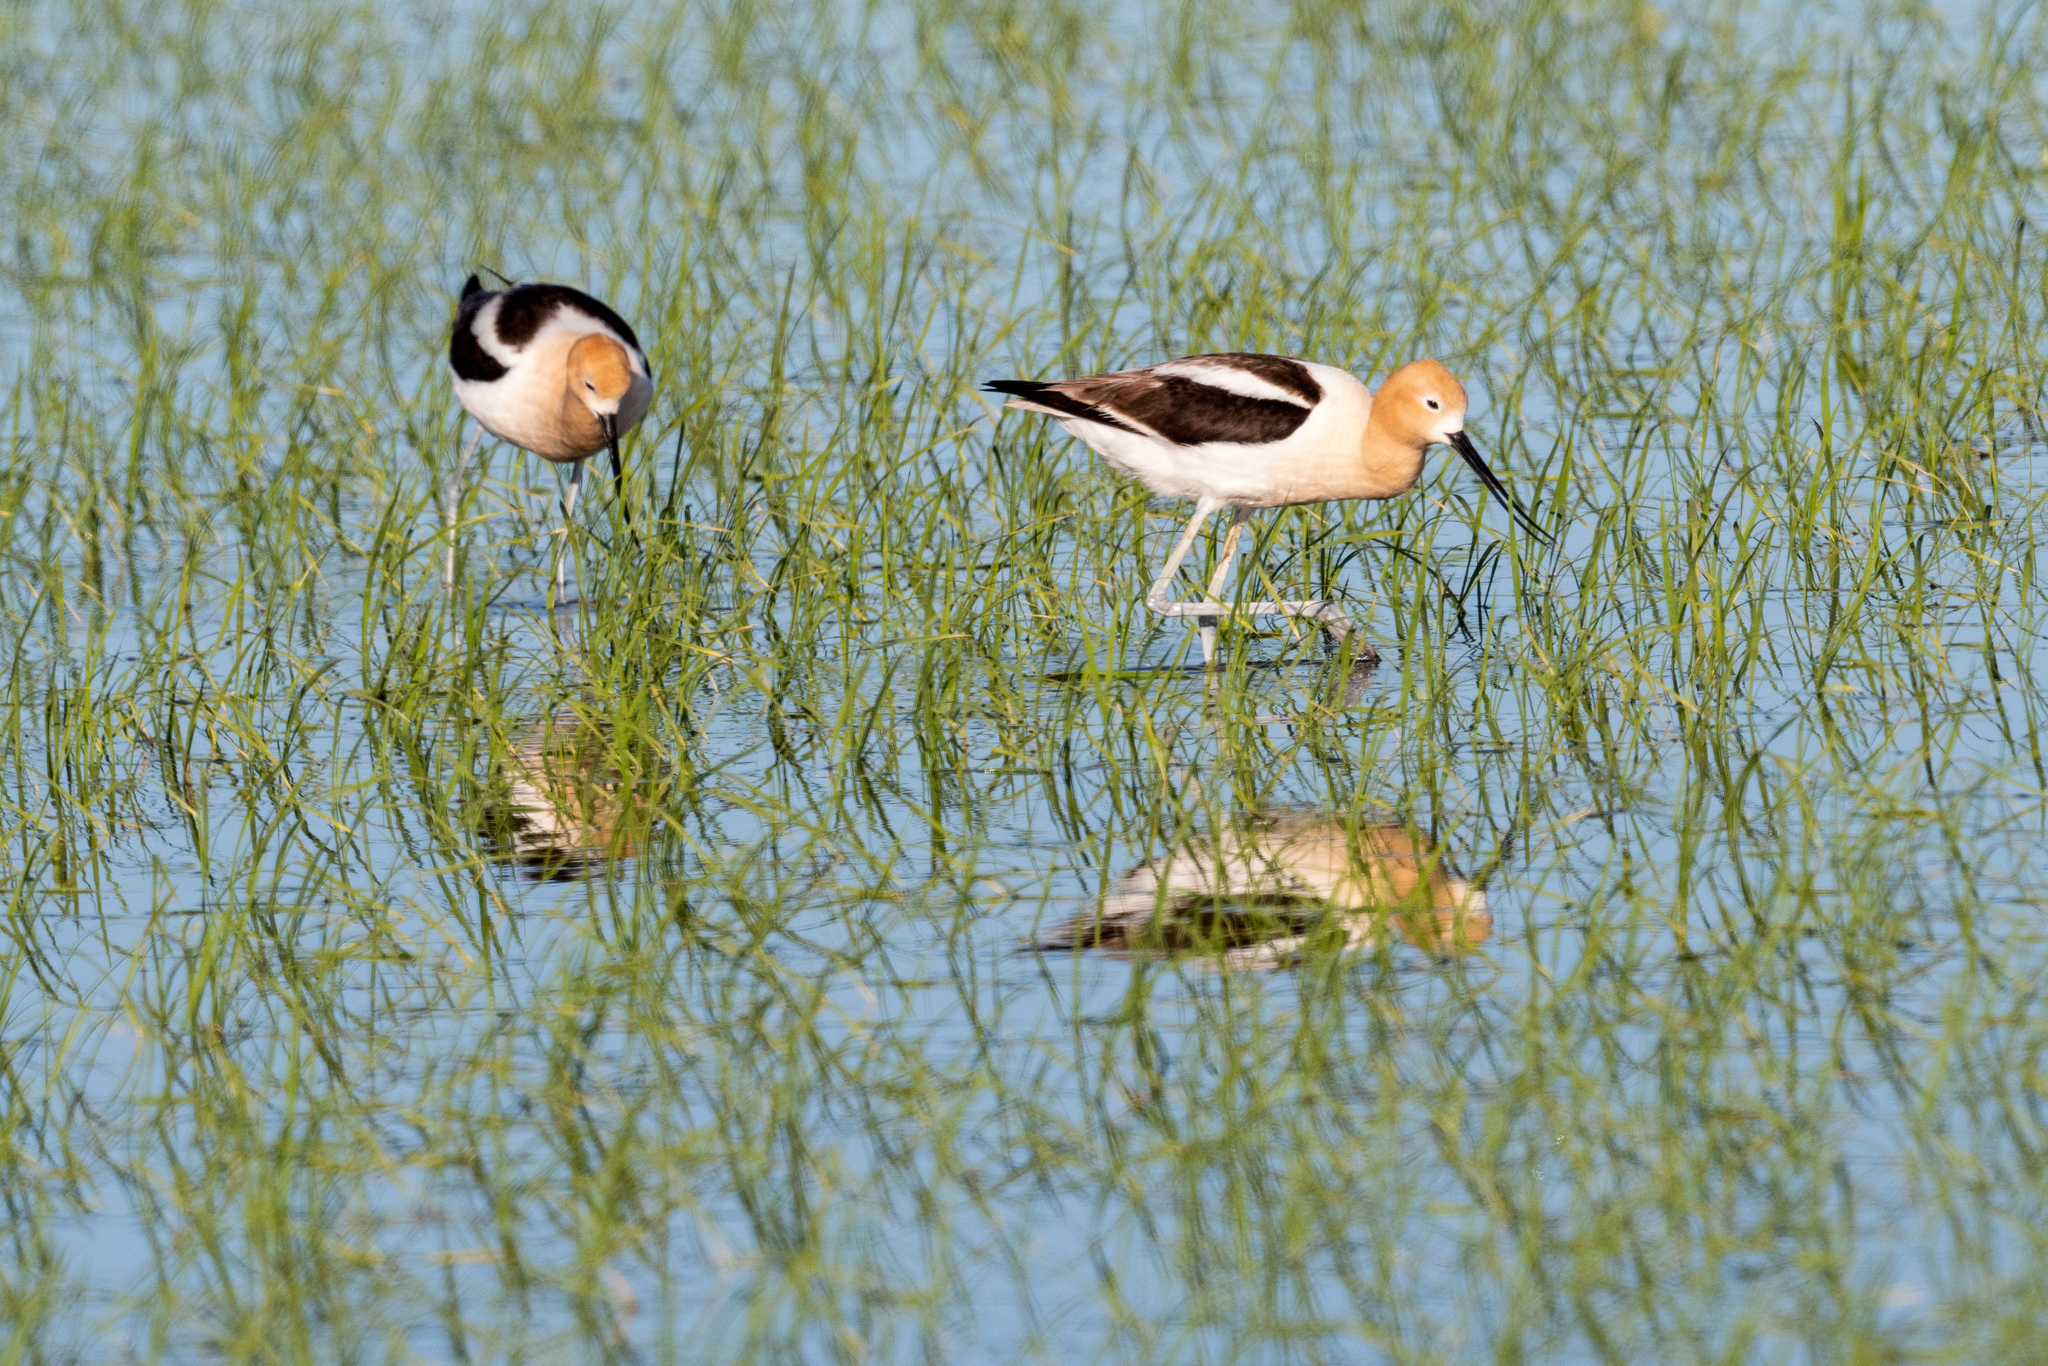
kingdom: Animalia
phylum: Chordata
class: Aves
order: Charadriiformes
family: Recurvirostridae
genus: Recurvirostra
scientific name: Recurvirostra americana
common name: American avocet
